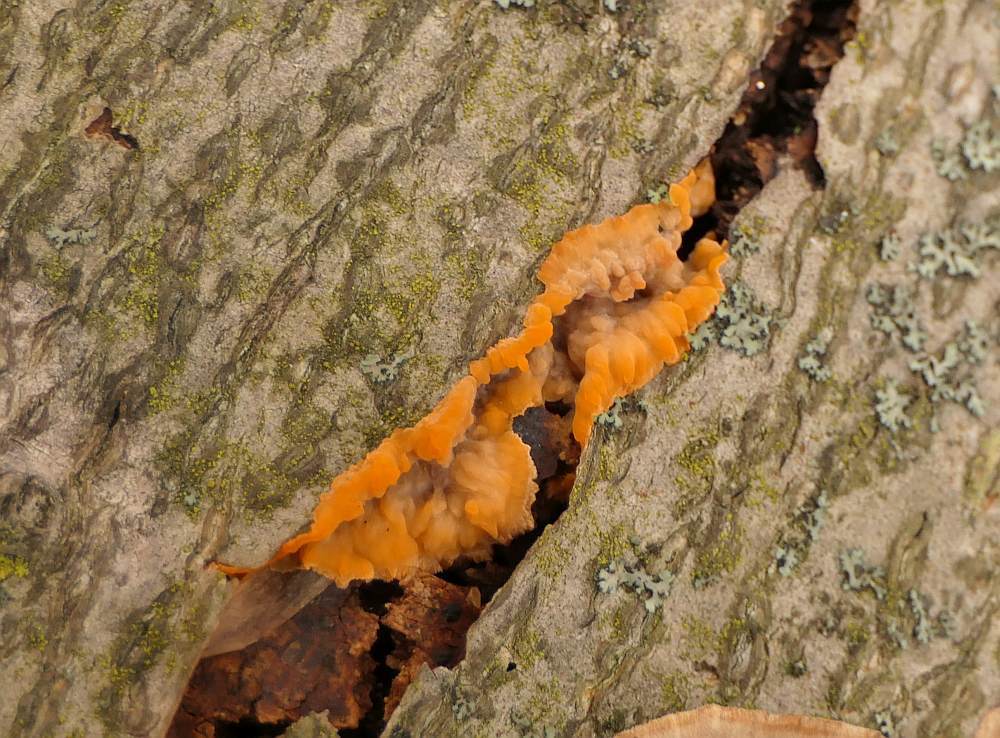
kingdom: Fungi
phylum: Basidiomycota
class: Agaricomycetes
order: Polyporales
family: Meruliaceae
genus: Phlebia
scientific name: Phlebia radiata
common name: Wrinkled crust
